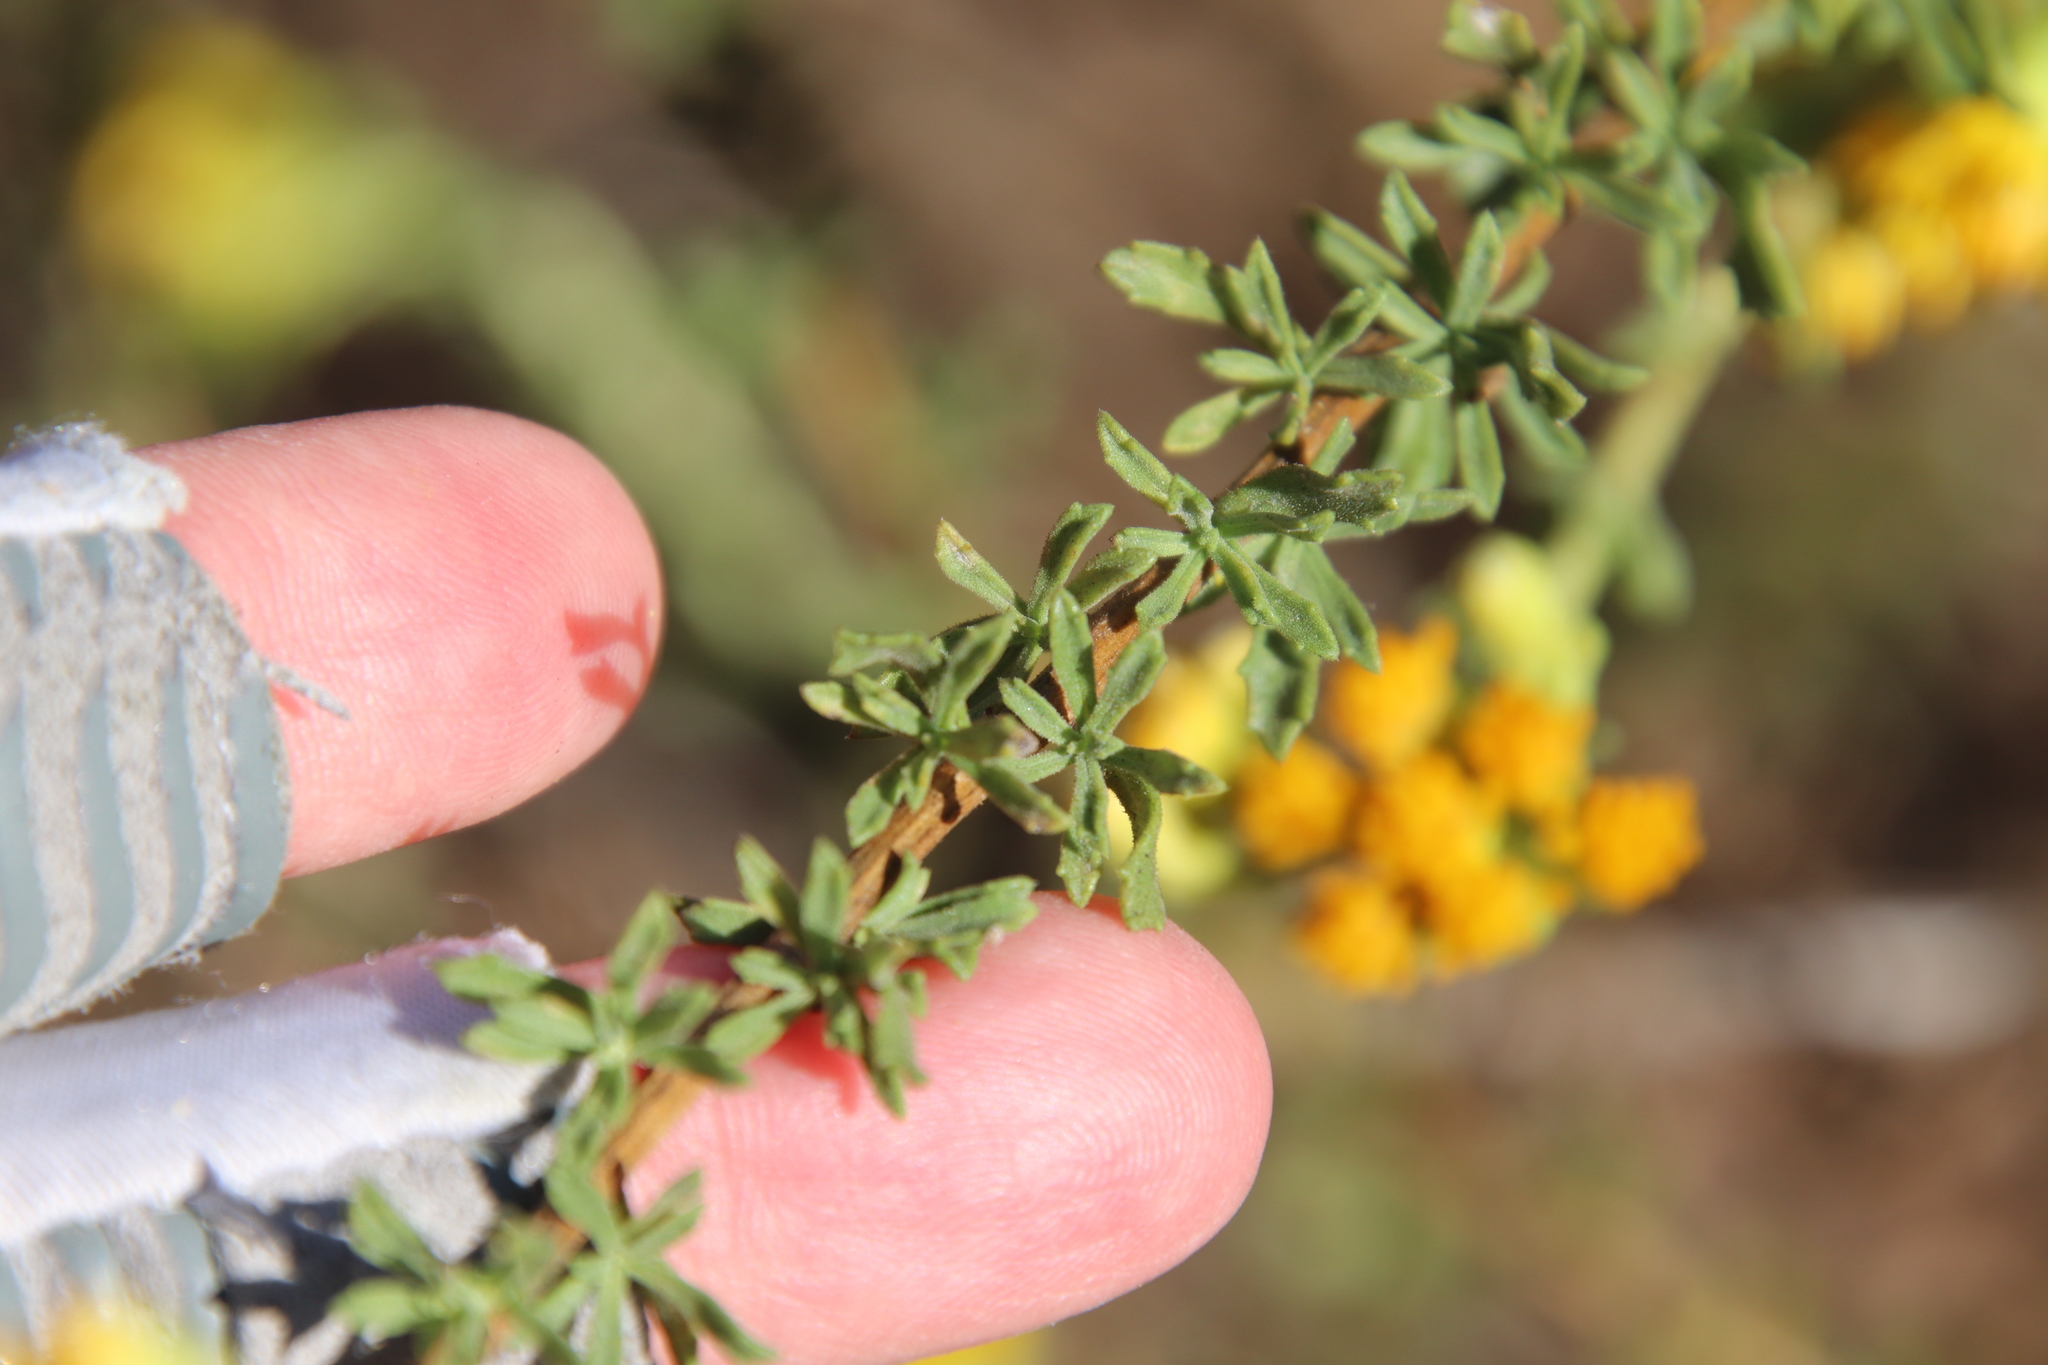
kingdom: Plantae
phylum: Tracheophyta
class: Magnoliopsida
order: Asterales
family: Asteraceae
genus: Isocoma
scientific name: Isocoma menziesii
